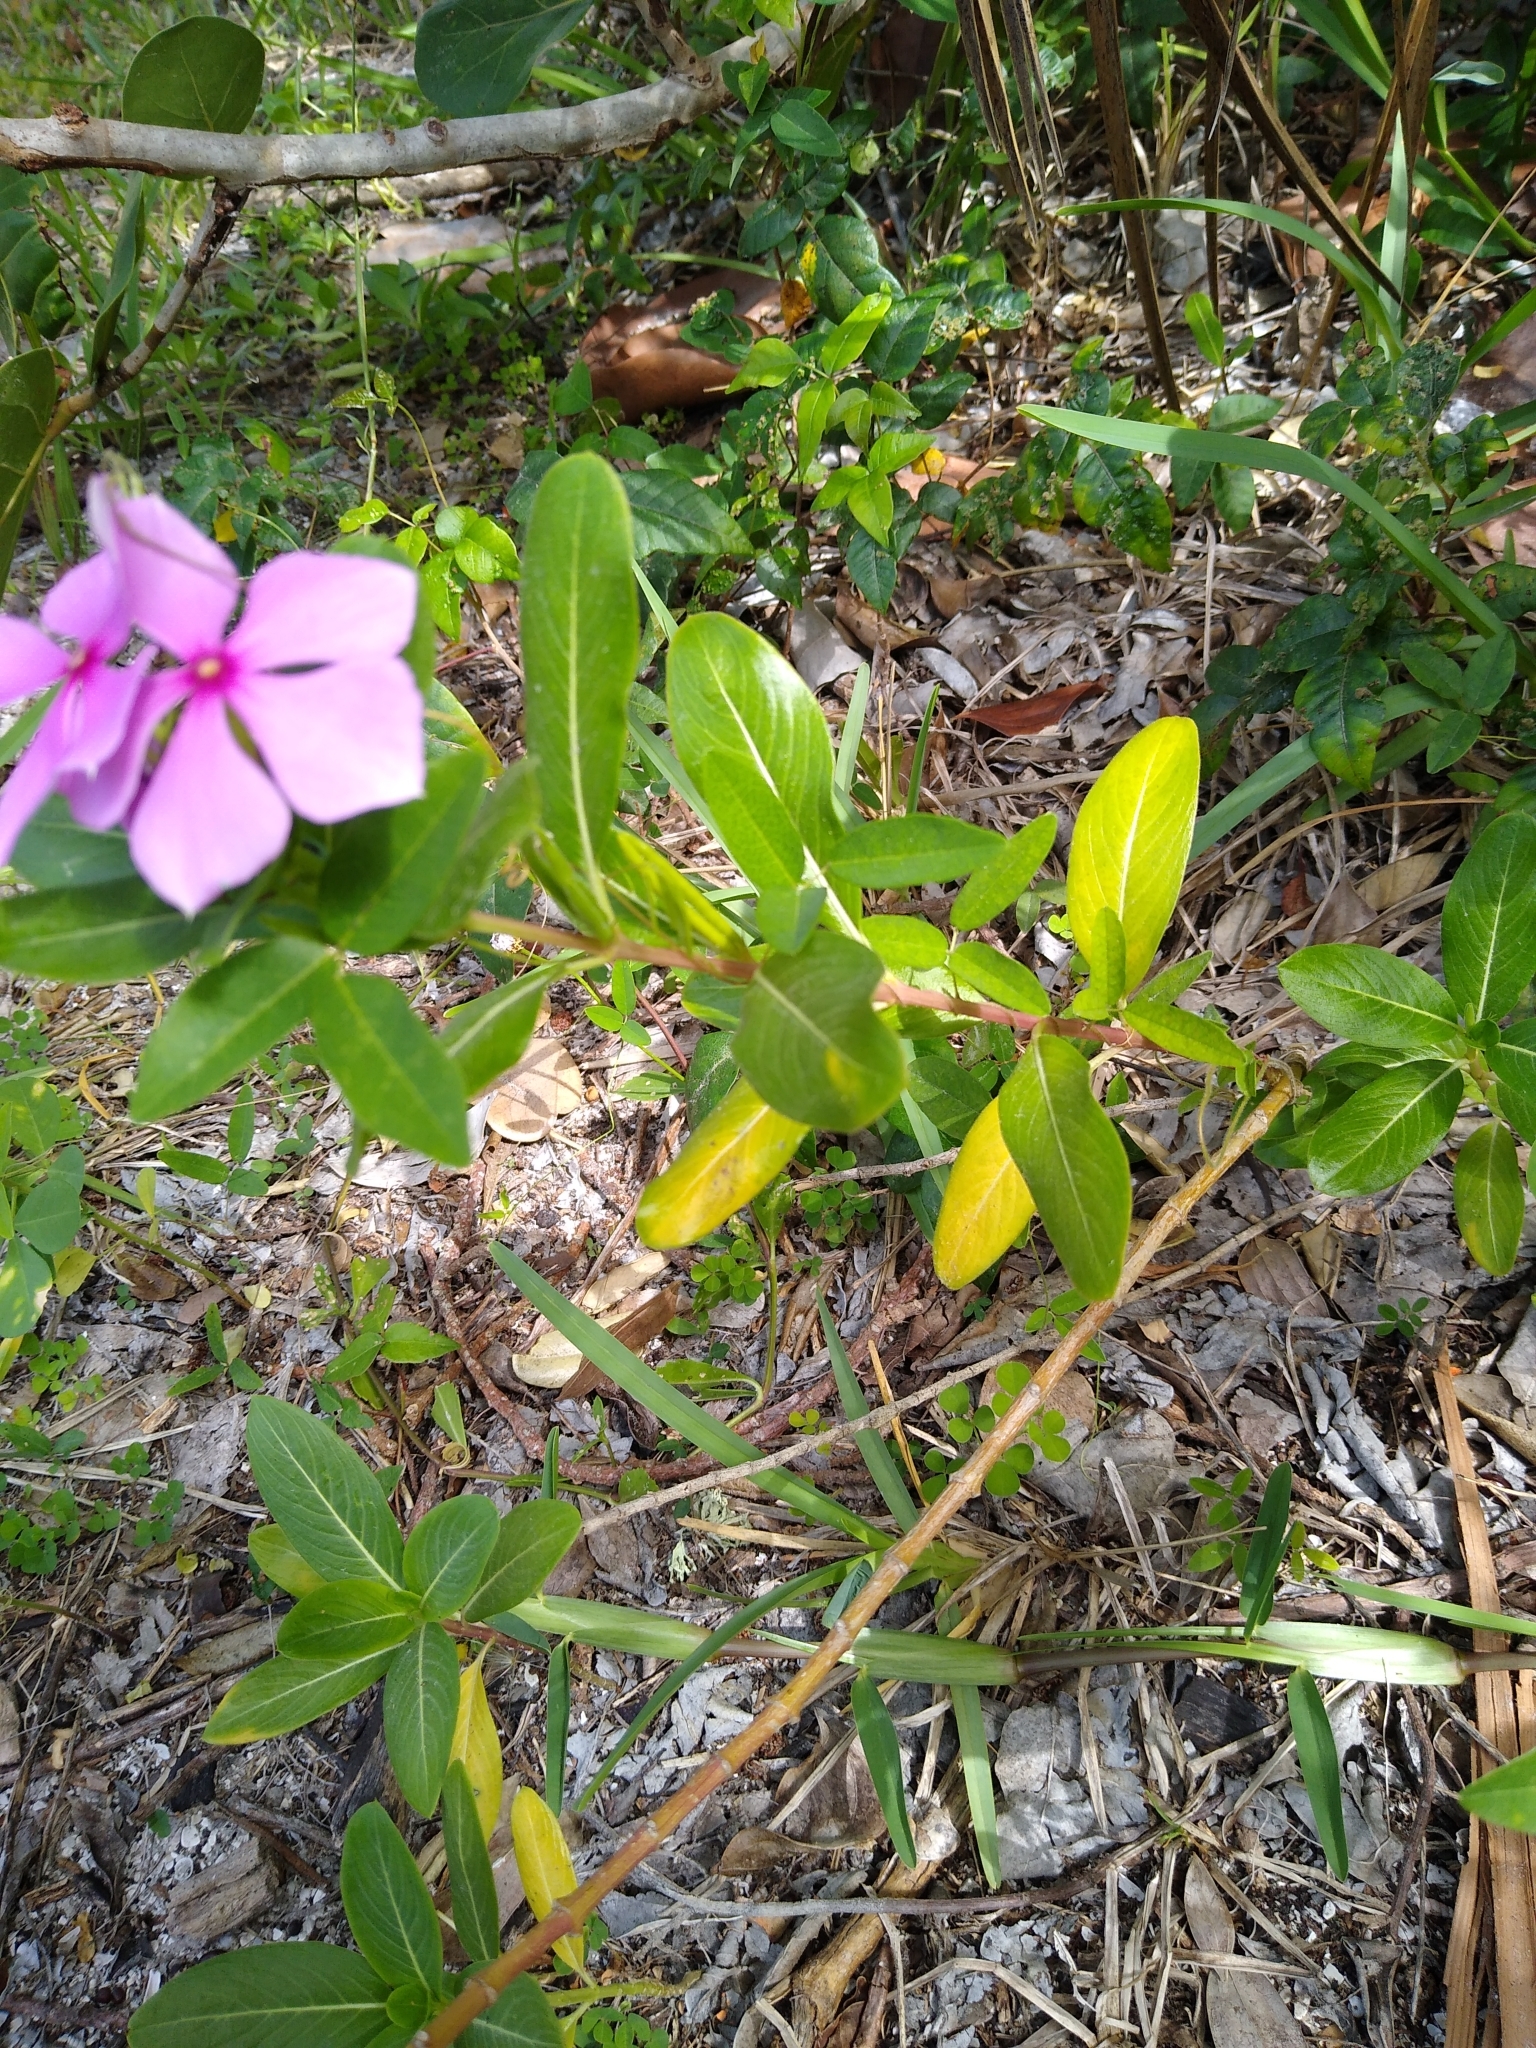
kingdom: Plantae
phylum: Tracheophyta
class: Magnoliopsida
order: Gentianales
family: Apocynaceae
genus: Catharanthus
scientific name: Catharanthus roseus
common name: Madagascar periwinkle
